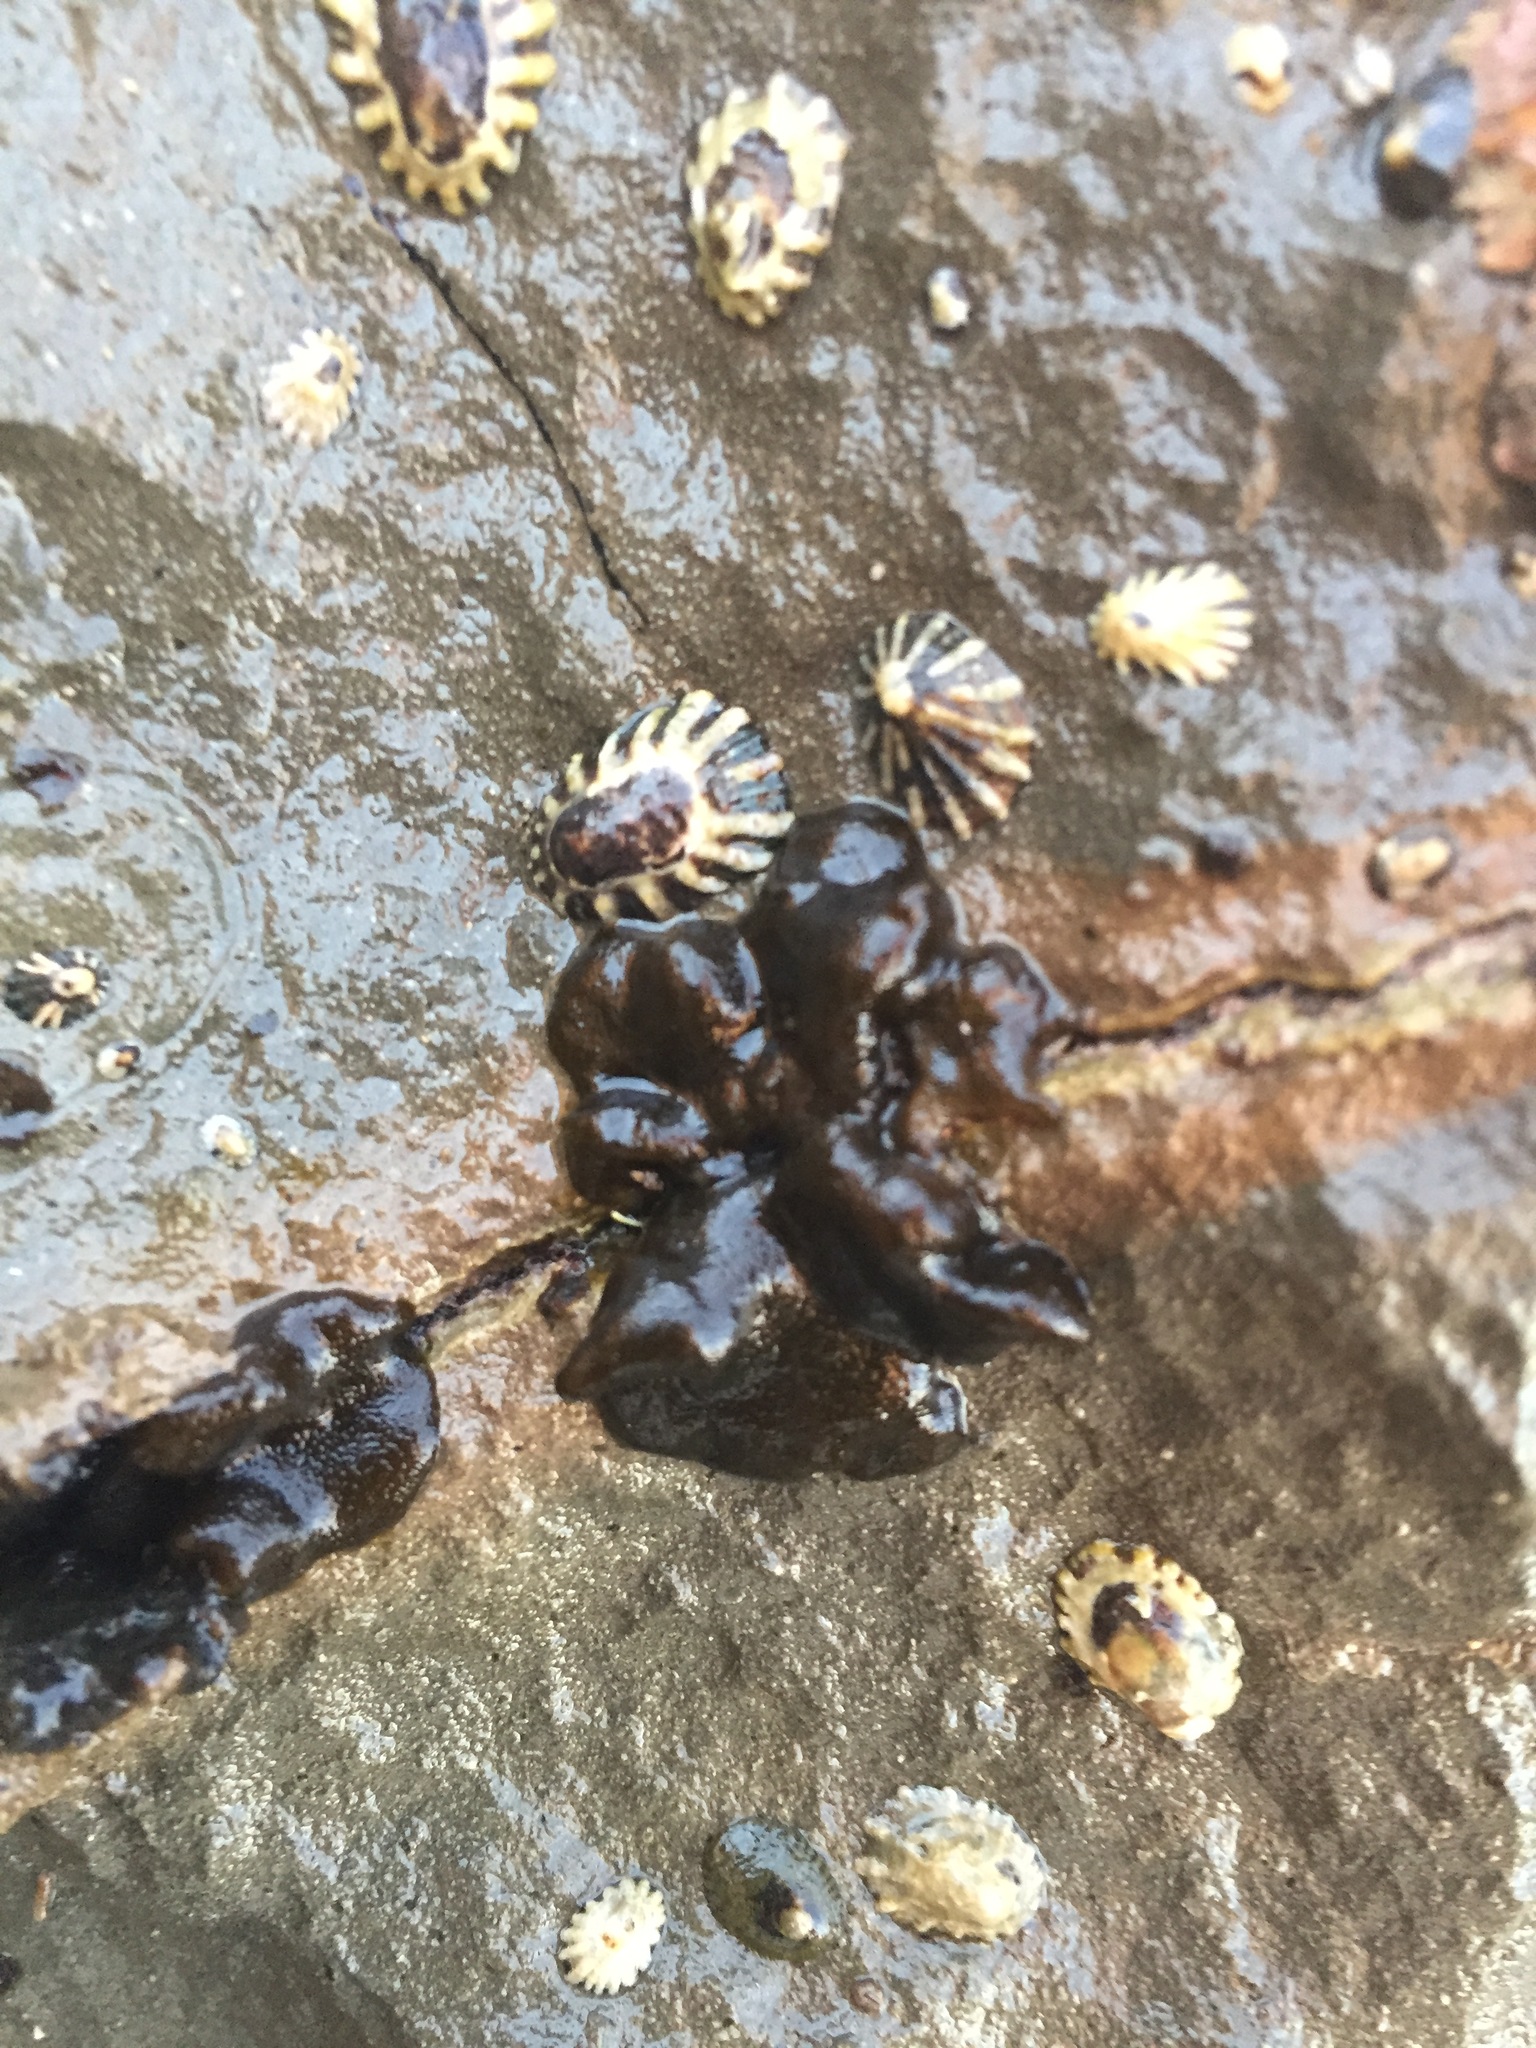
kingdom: Chromista
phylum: Ochrophyta
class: Phaeophyceae
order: Ectocarpales
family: Petrospongiaceae
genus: Petrospongium
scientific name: Petrospongium rugosum
